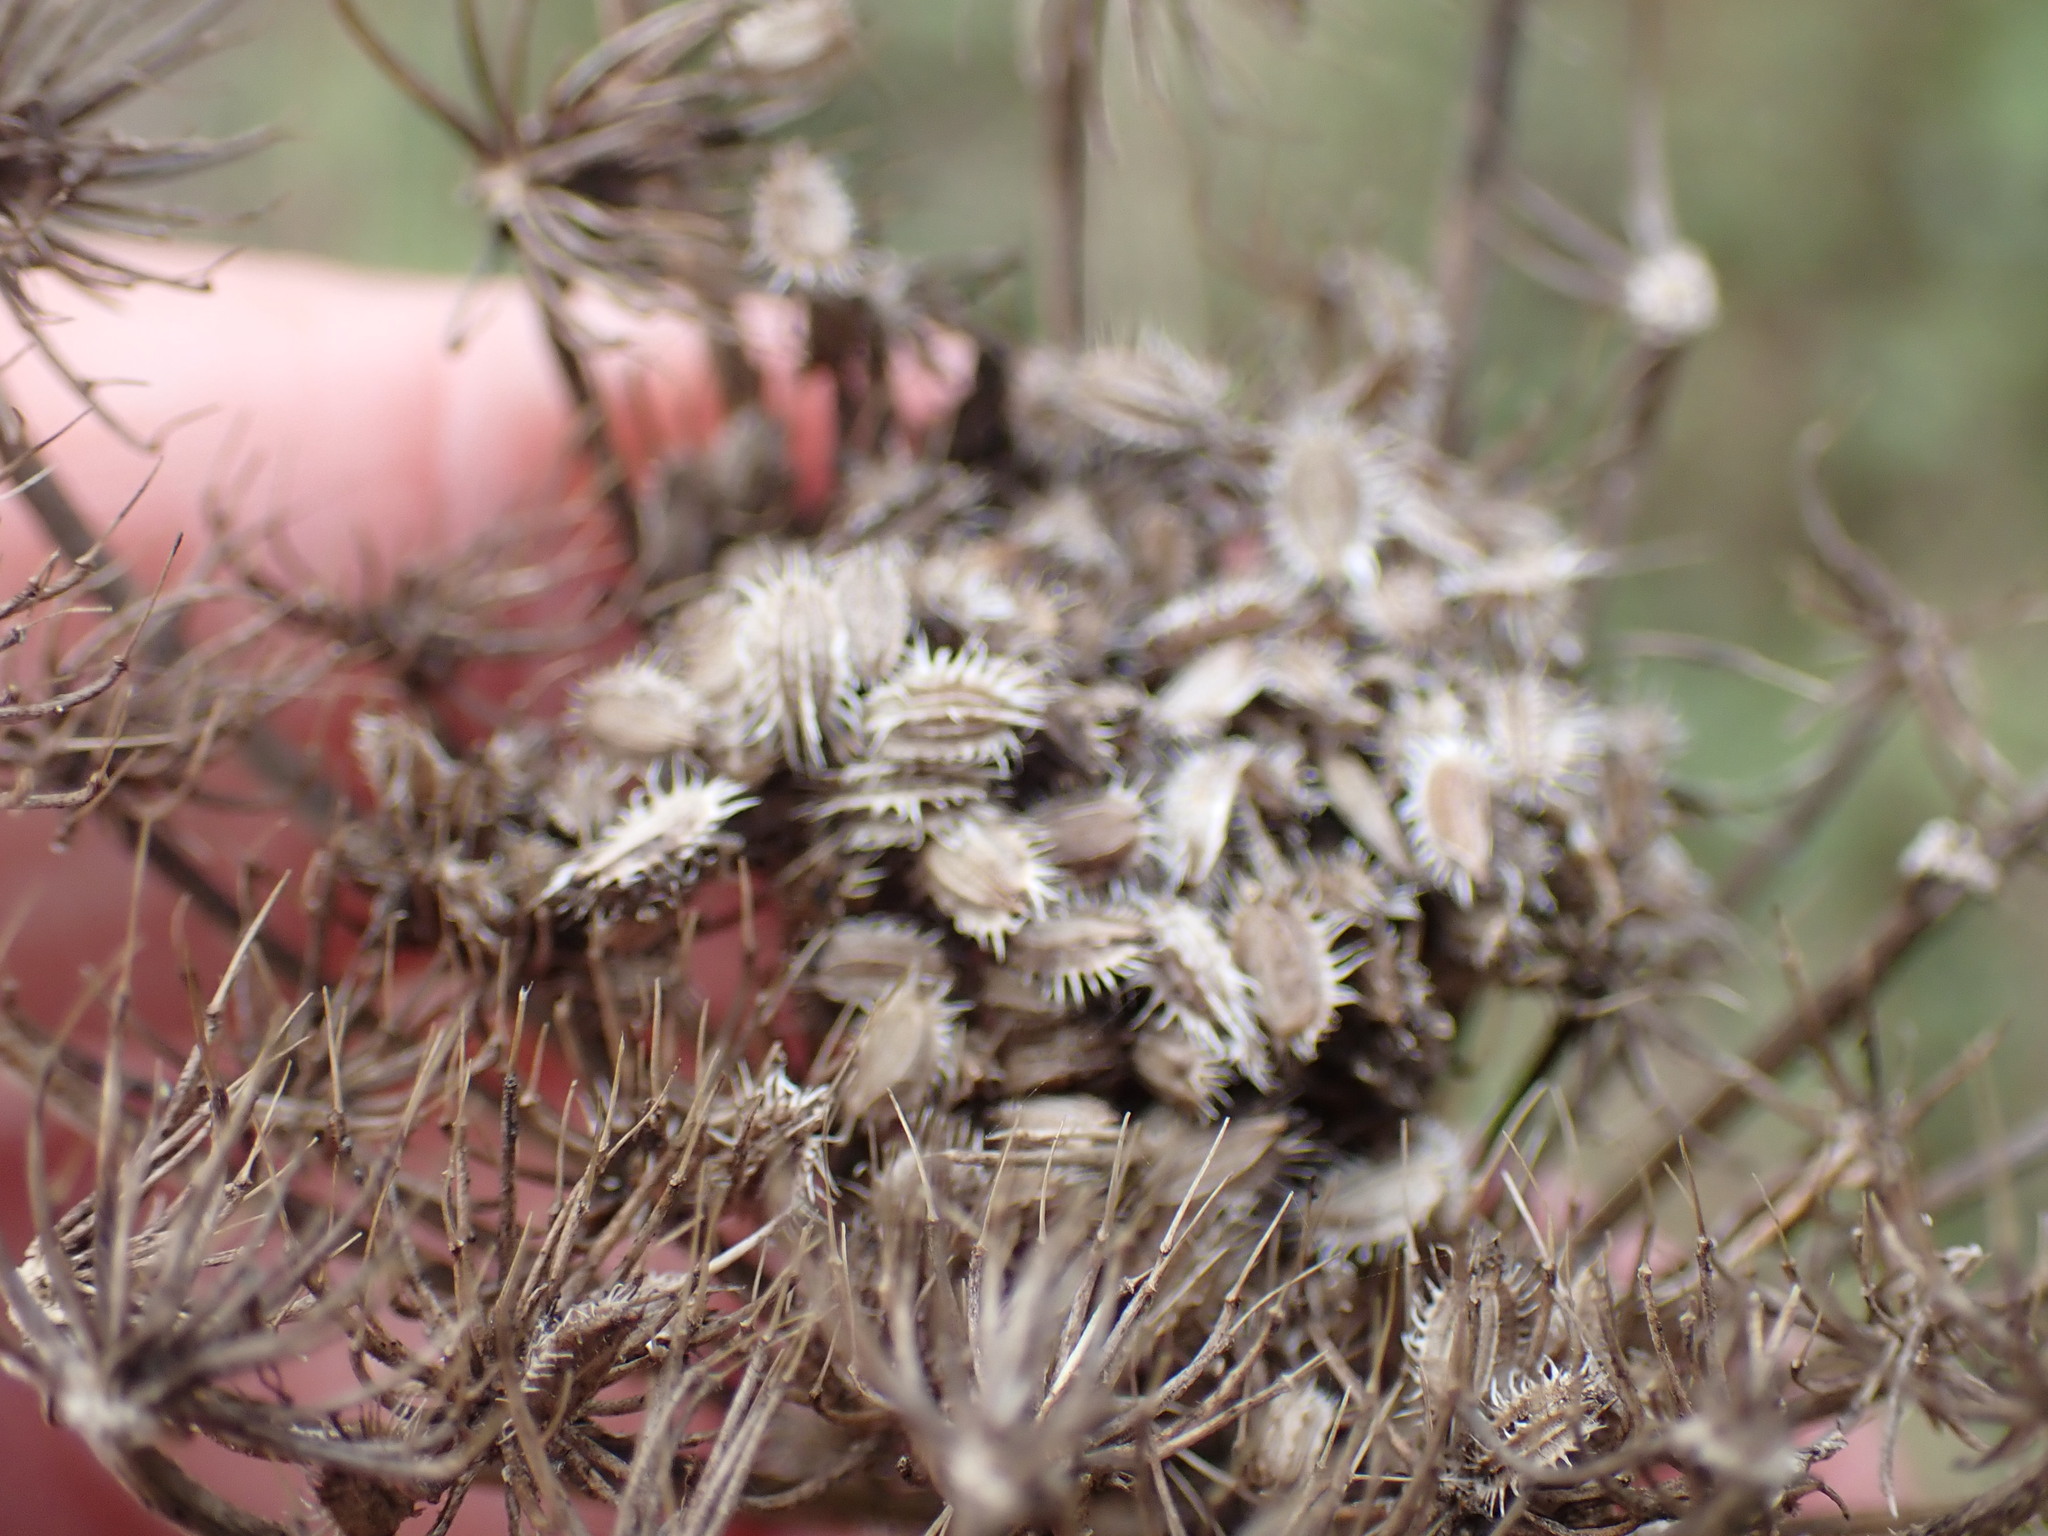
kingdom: Plantae
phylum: Tracheophyta
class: Magnoliopsida
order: Apiales
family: Apiaceae
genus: Daucus
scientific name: Daucus carota
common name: Wild carrot
